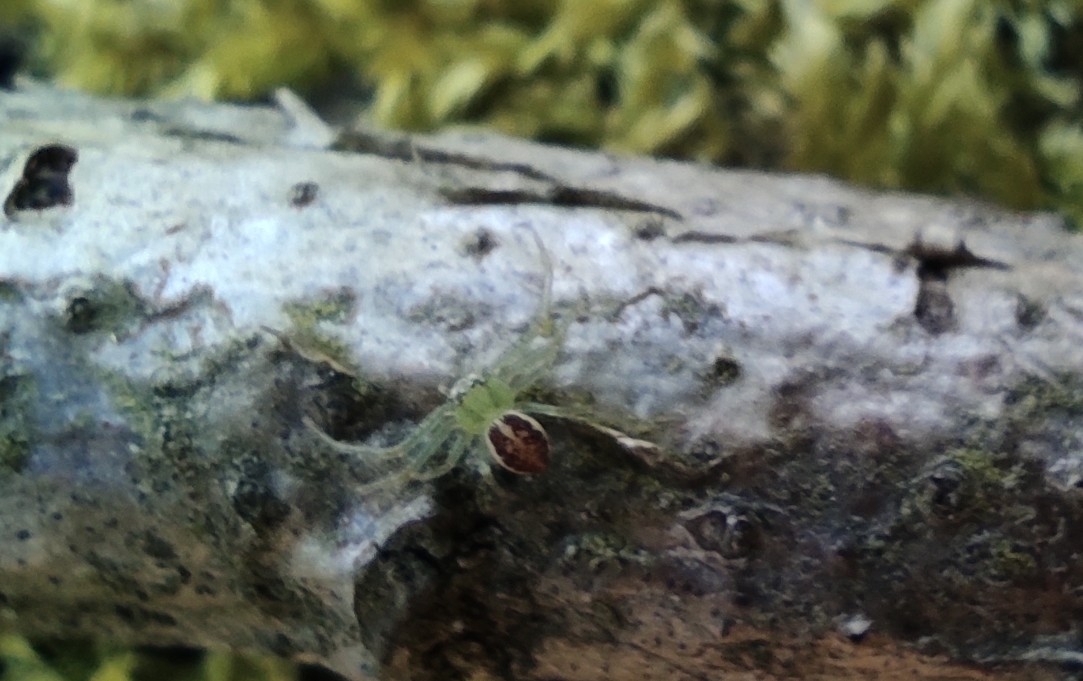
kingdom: Animalia
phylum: Arthropoda
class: Arachnida
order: Araneae
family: Thomisidae
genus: Diaea
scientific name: Diaea dorsata
